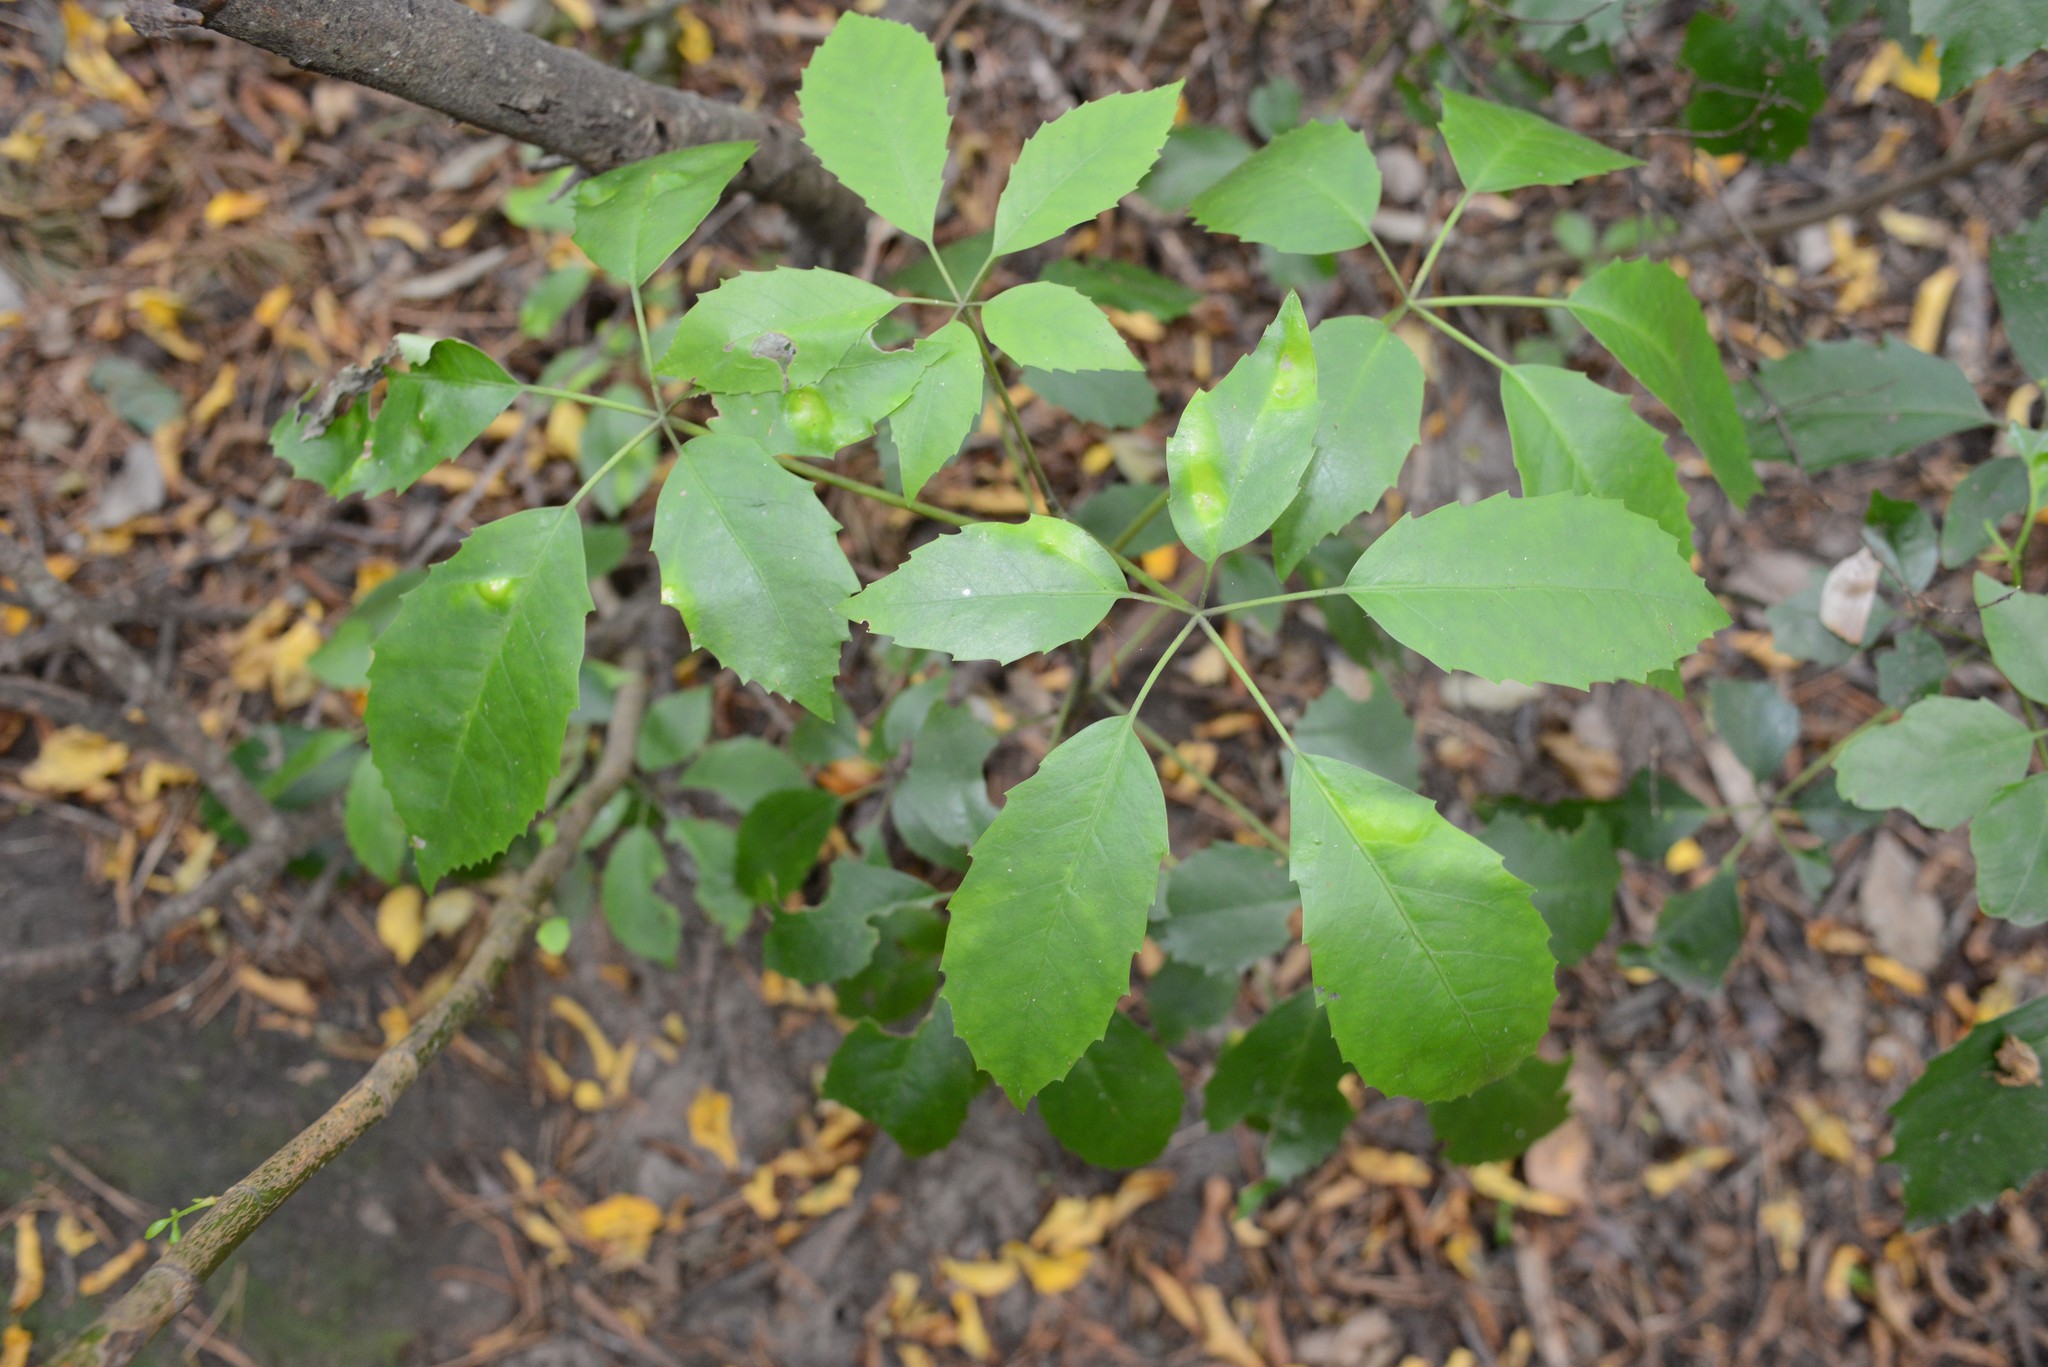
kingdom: Plantae
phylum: Tracheophyta
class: Magnoliopsida
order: Apiales
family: Araliaceae
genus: Neopanax
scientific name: Neopanax arboreus
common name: Five-fingers
